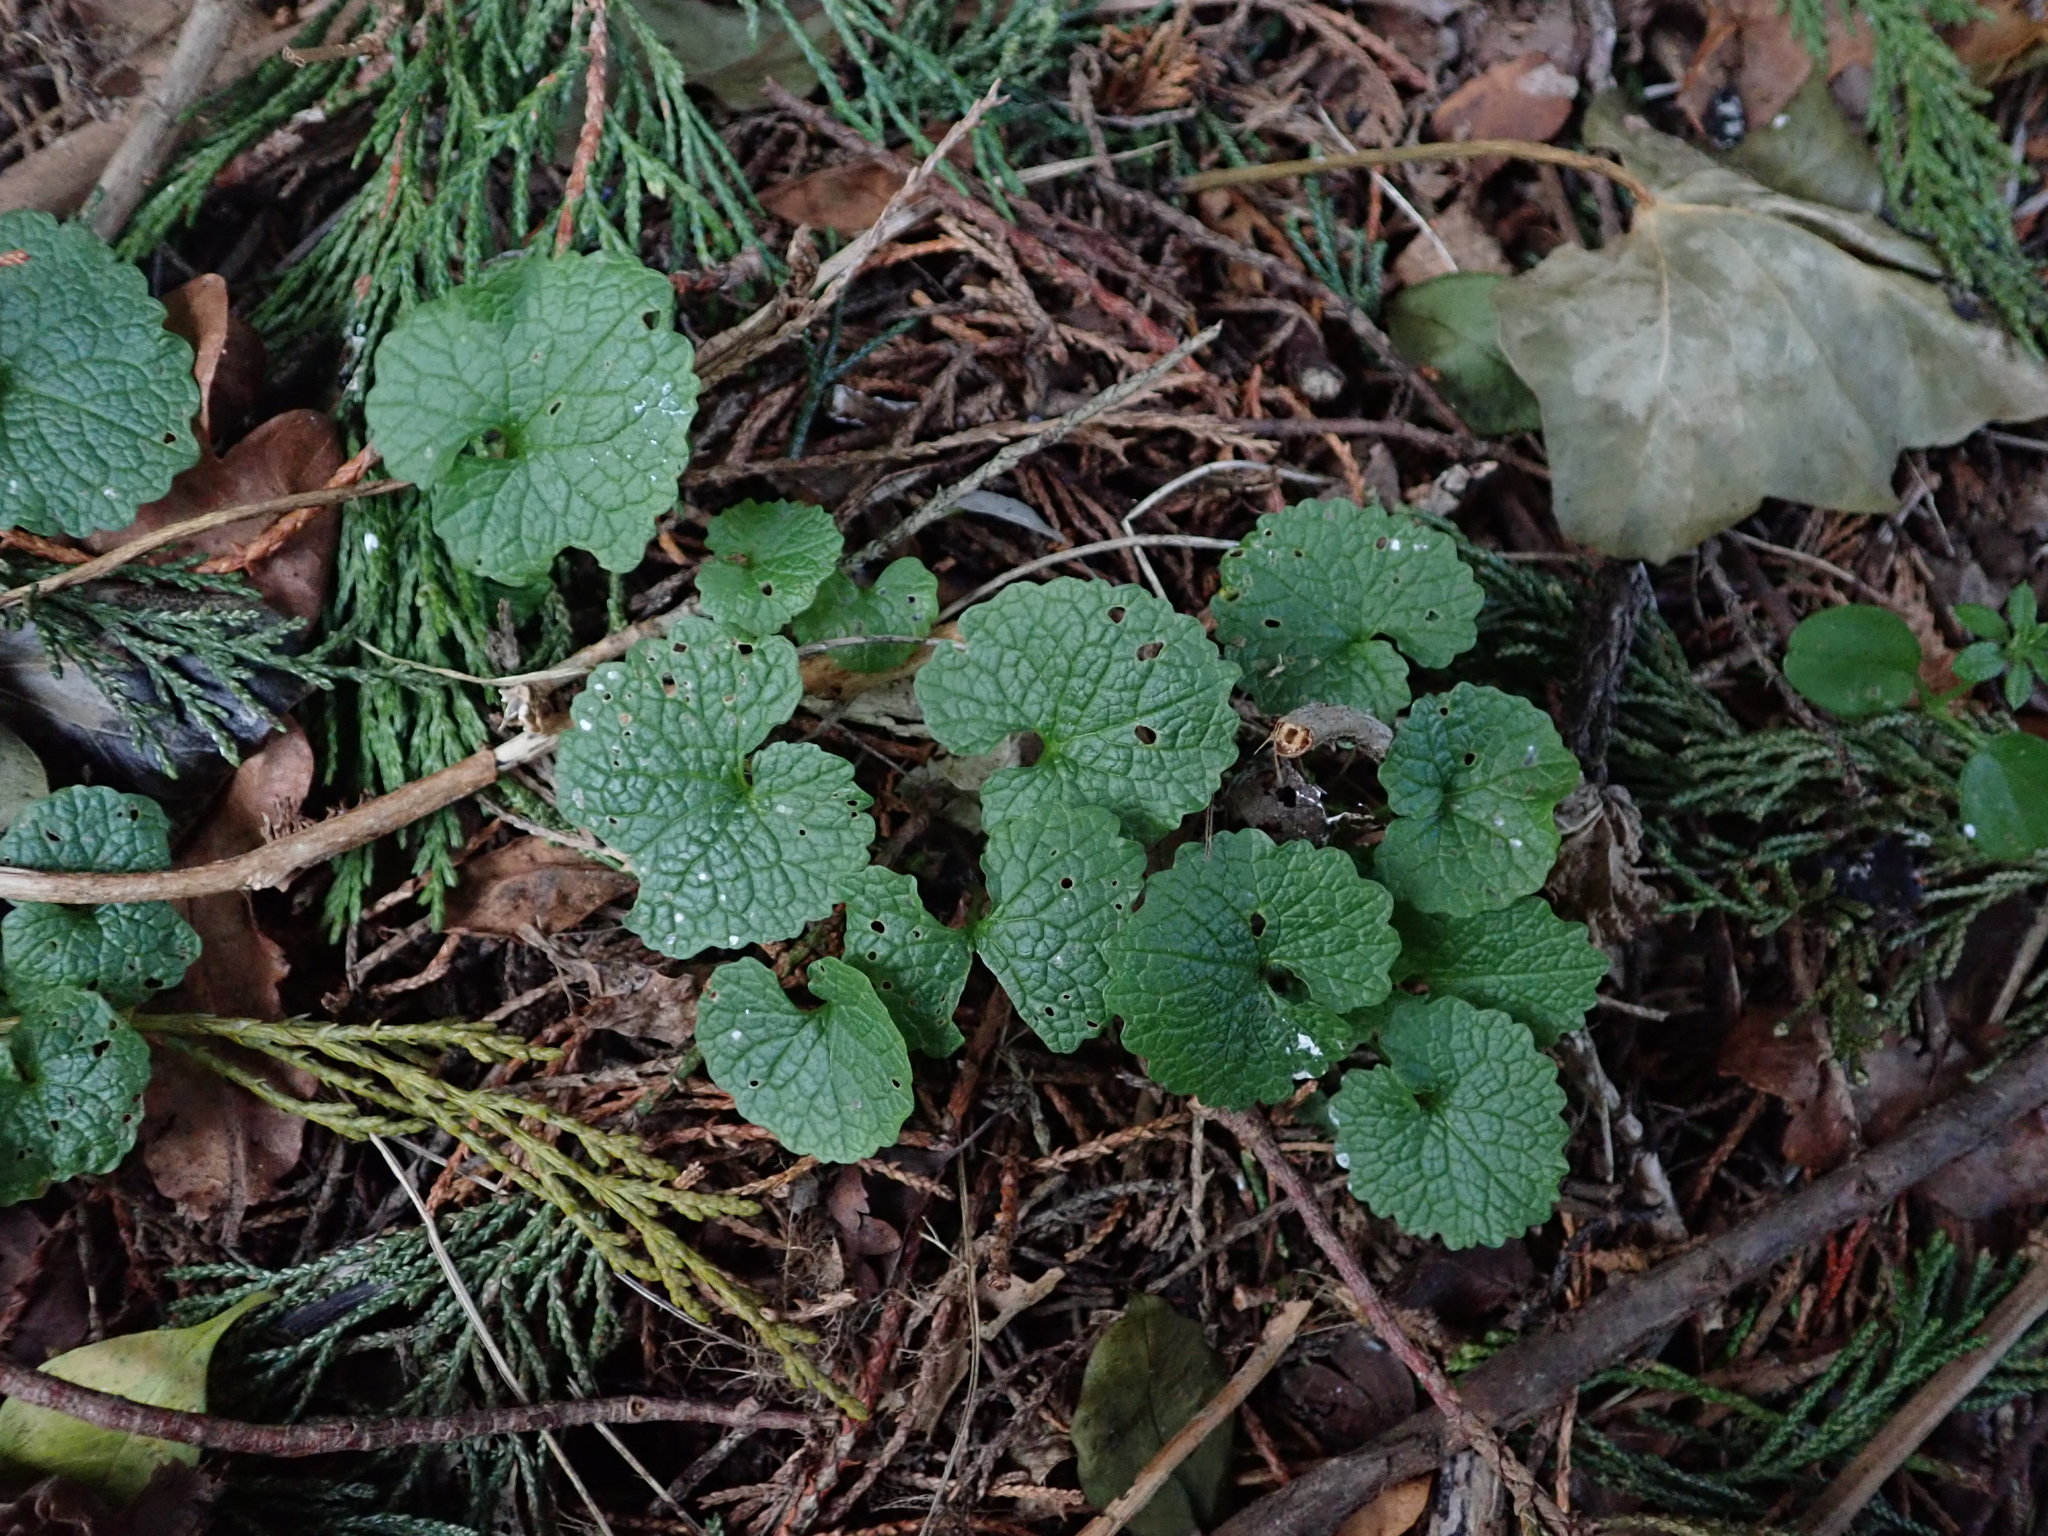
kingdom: Plantae
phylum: Tracheophyta
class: Magnoliopsida
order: Brassicales
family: Brassicaceae
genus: Alliaria
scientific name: Alliaria petiolata
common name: Garlic mustard
